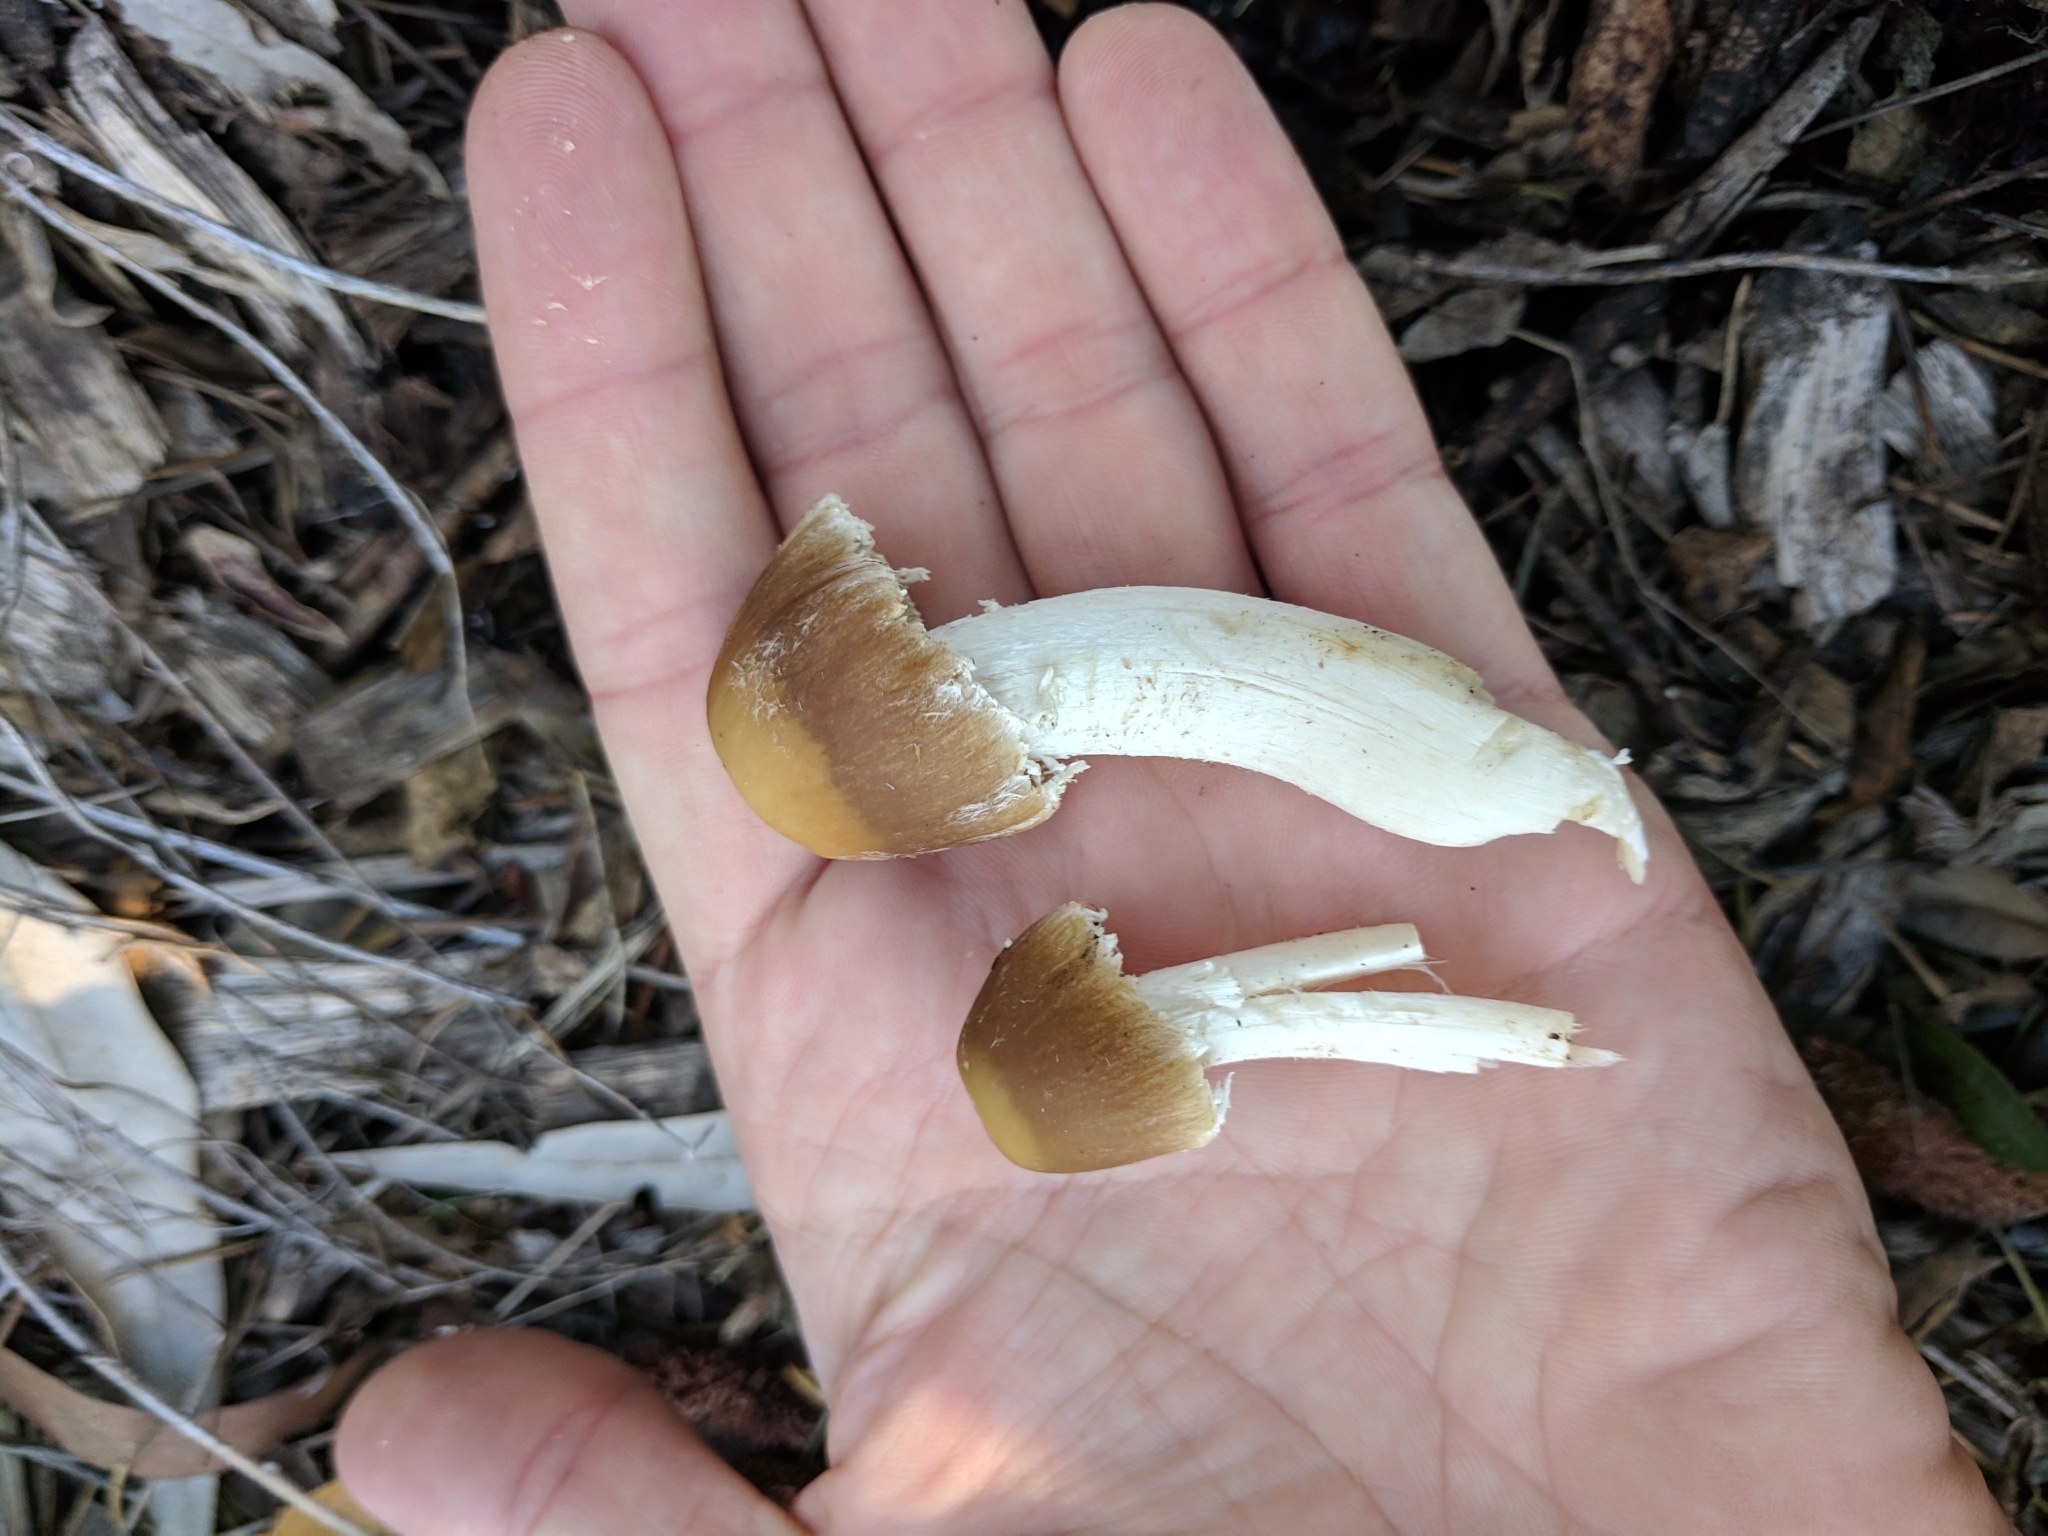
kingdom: Fungi
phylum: Basidiomycota
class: Agaricomycetes
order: Agaricales
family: Psathyrellaceae
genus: Candolleomyces
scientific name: Candolleomyces candolleanus
